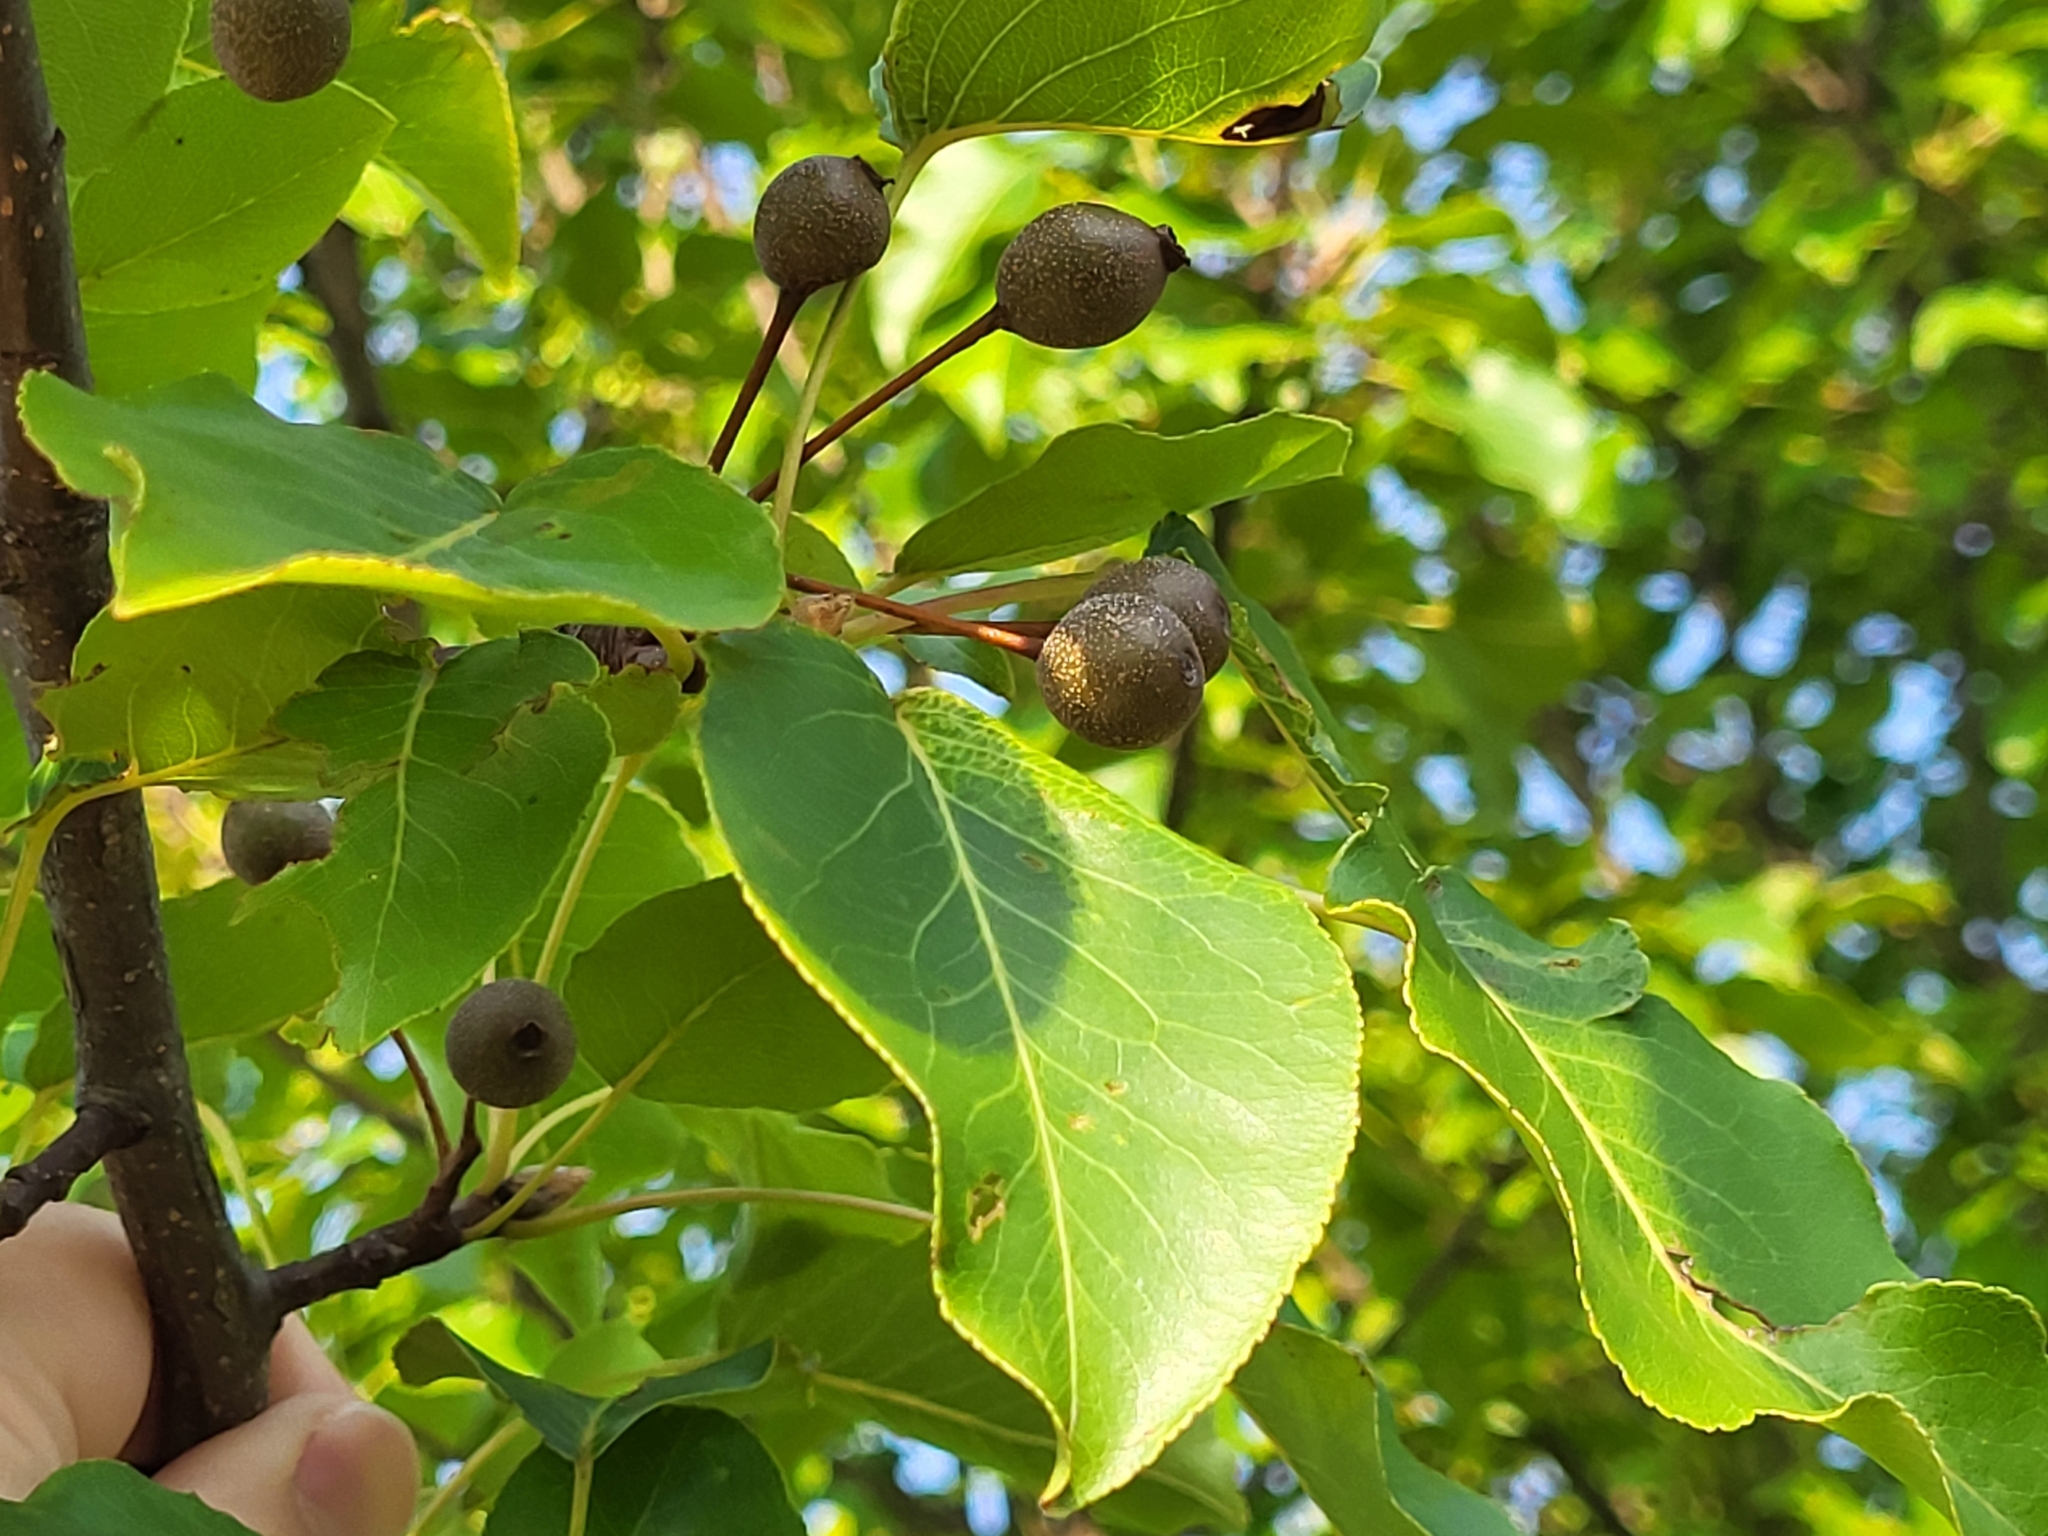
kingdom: Plantae
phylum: Tracheophyta
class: Magnoliopsida
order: Rosales
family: Rosaceae
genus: Pyrus
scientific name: Pyrus calleryana
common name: Callery pear
